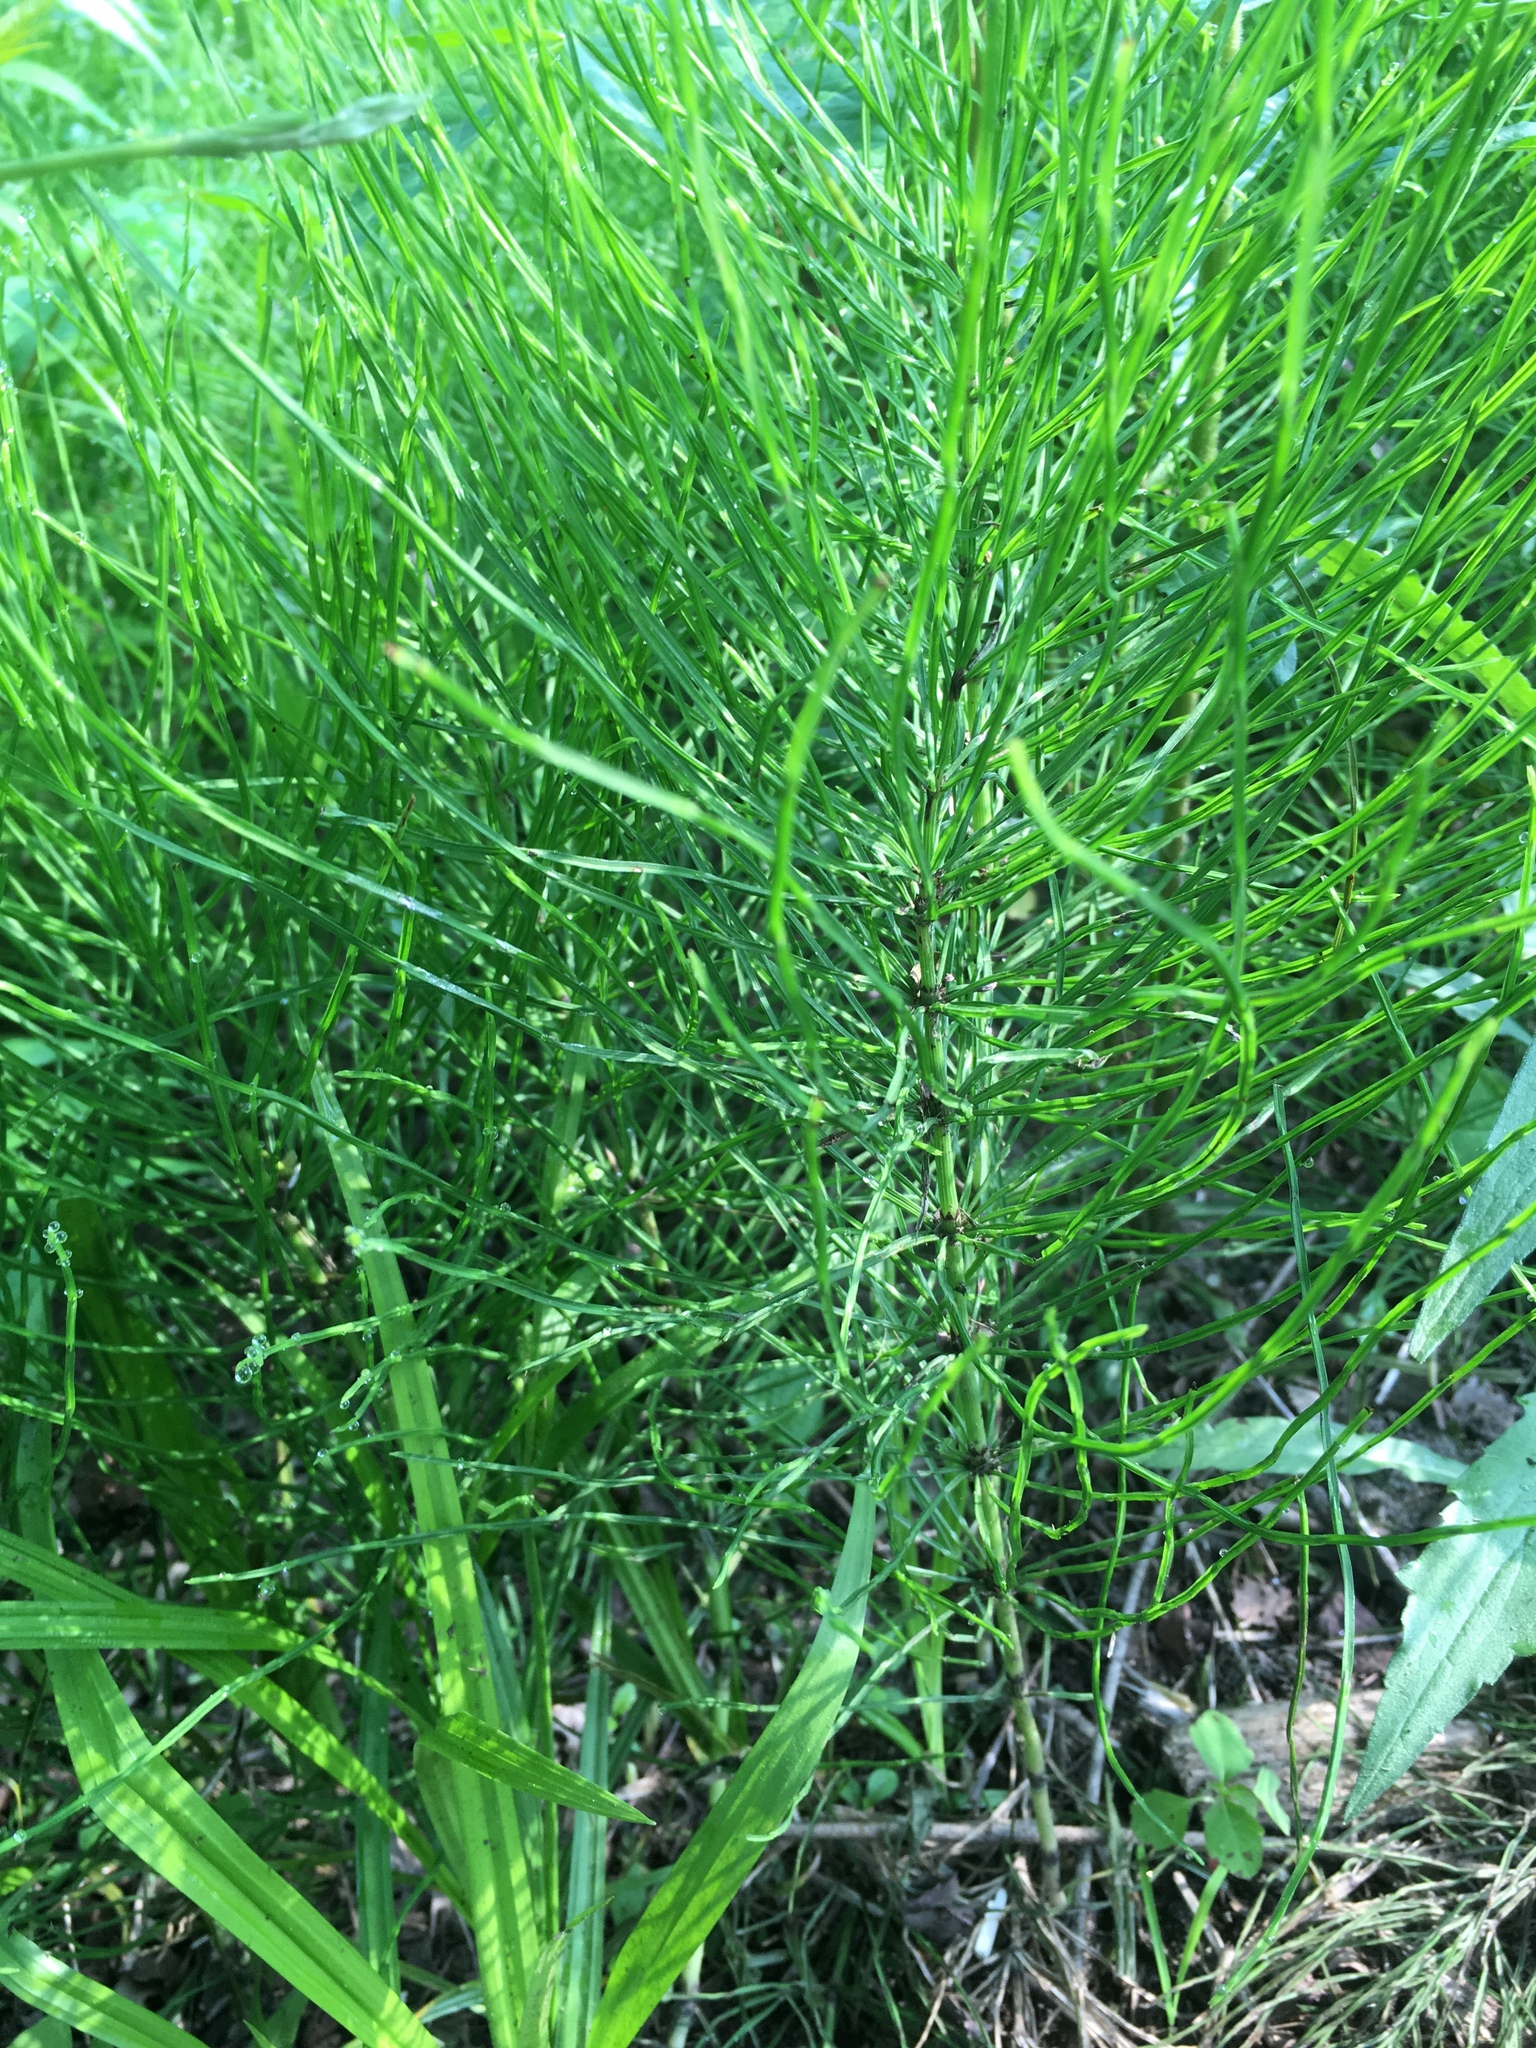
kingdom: Plantae
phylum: Tracheophyta
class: Polypodiopsida
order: Equisetales
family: Equisetaceae
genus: Equisetum
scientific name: Equisetum arvense
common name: Field horsetail
